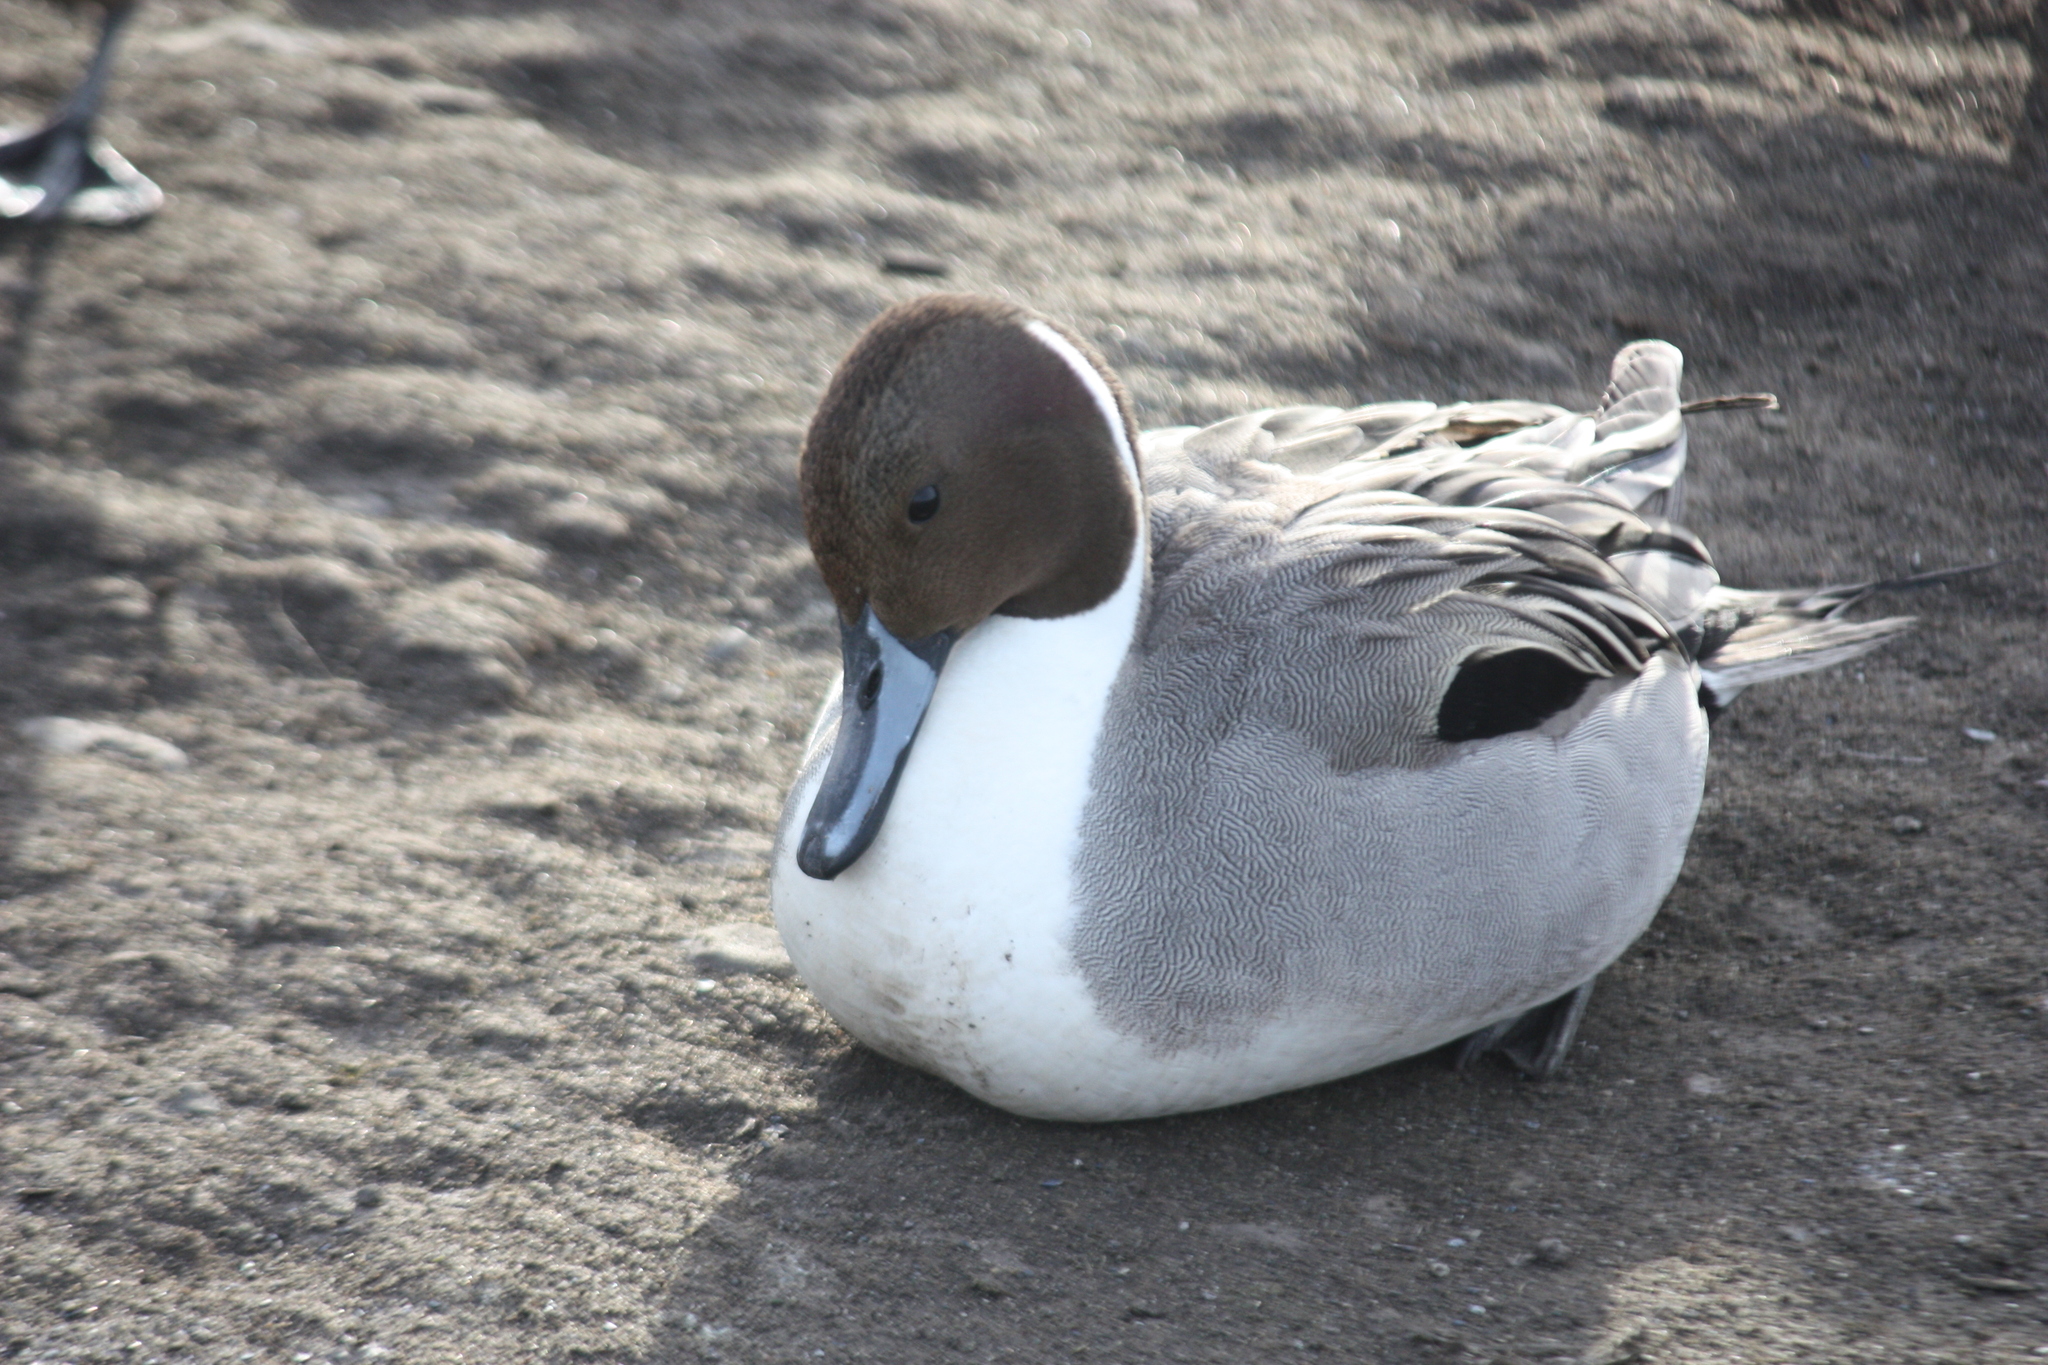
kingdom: Animalia
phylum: Chordata
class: Aves
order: Anseriformes
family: Anatidae
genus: Anas
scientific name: Anas acuta
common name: Northern pintail
